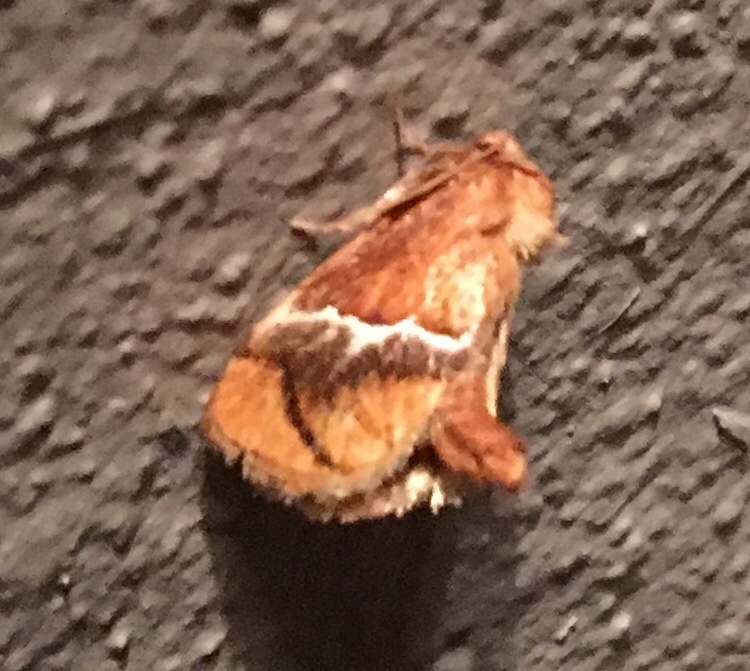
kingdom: Animalia
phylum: Arthropoda
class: Insecta
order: Lepidoptera
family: Limacodidae
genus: Lithacodes
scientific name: Lithacodes fasciola
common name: Yellow-shouldered slug moth
